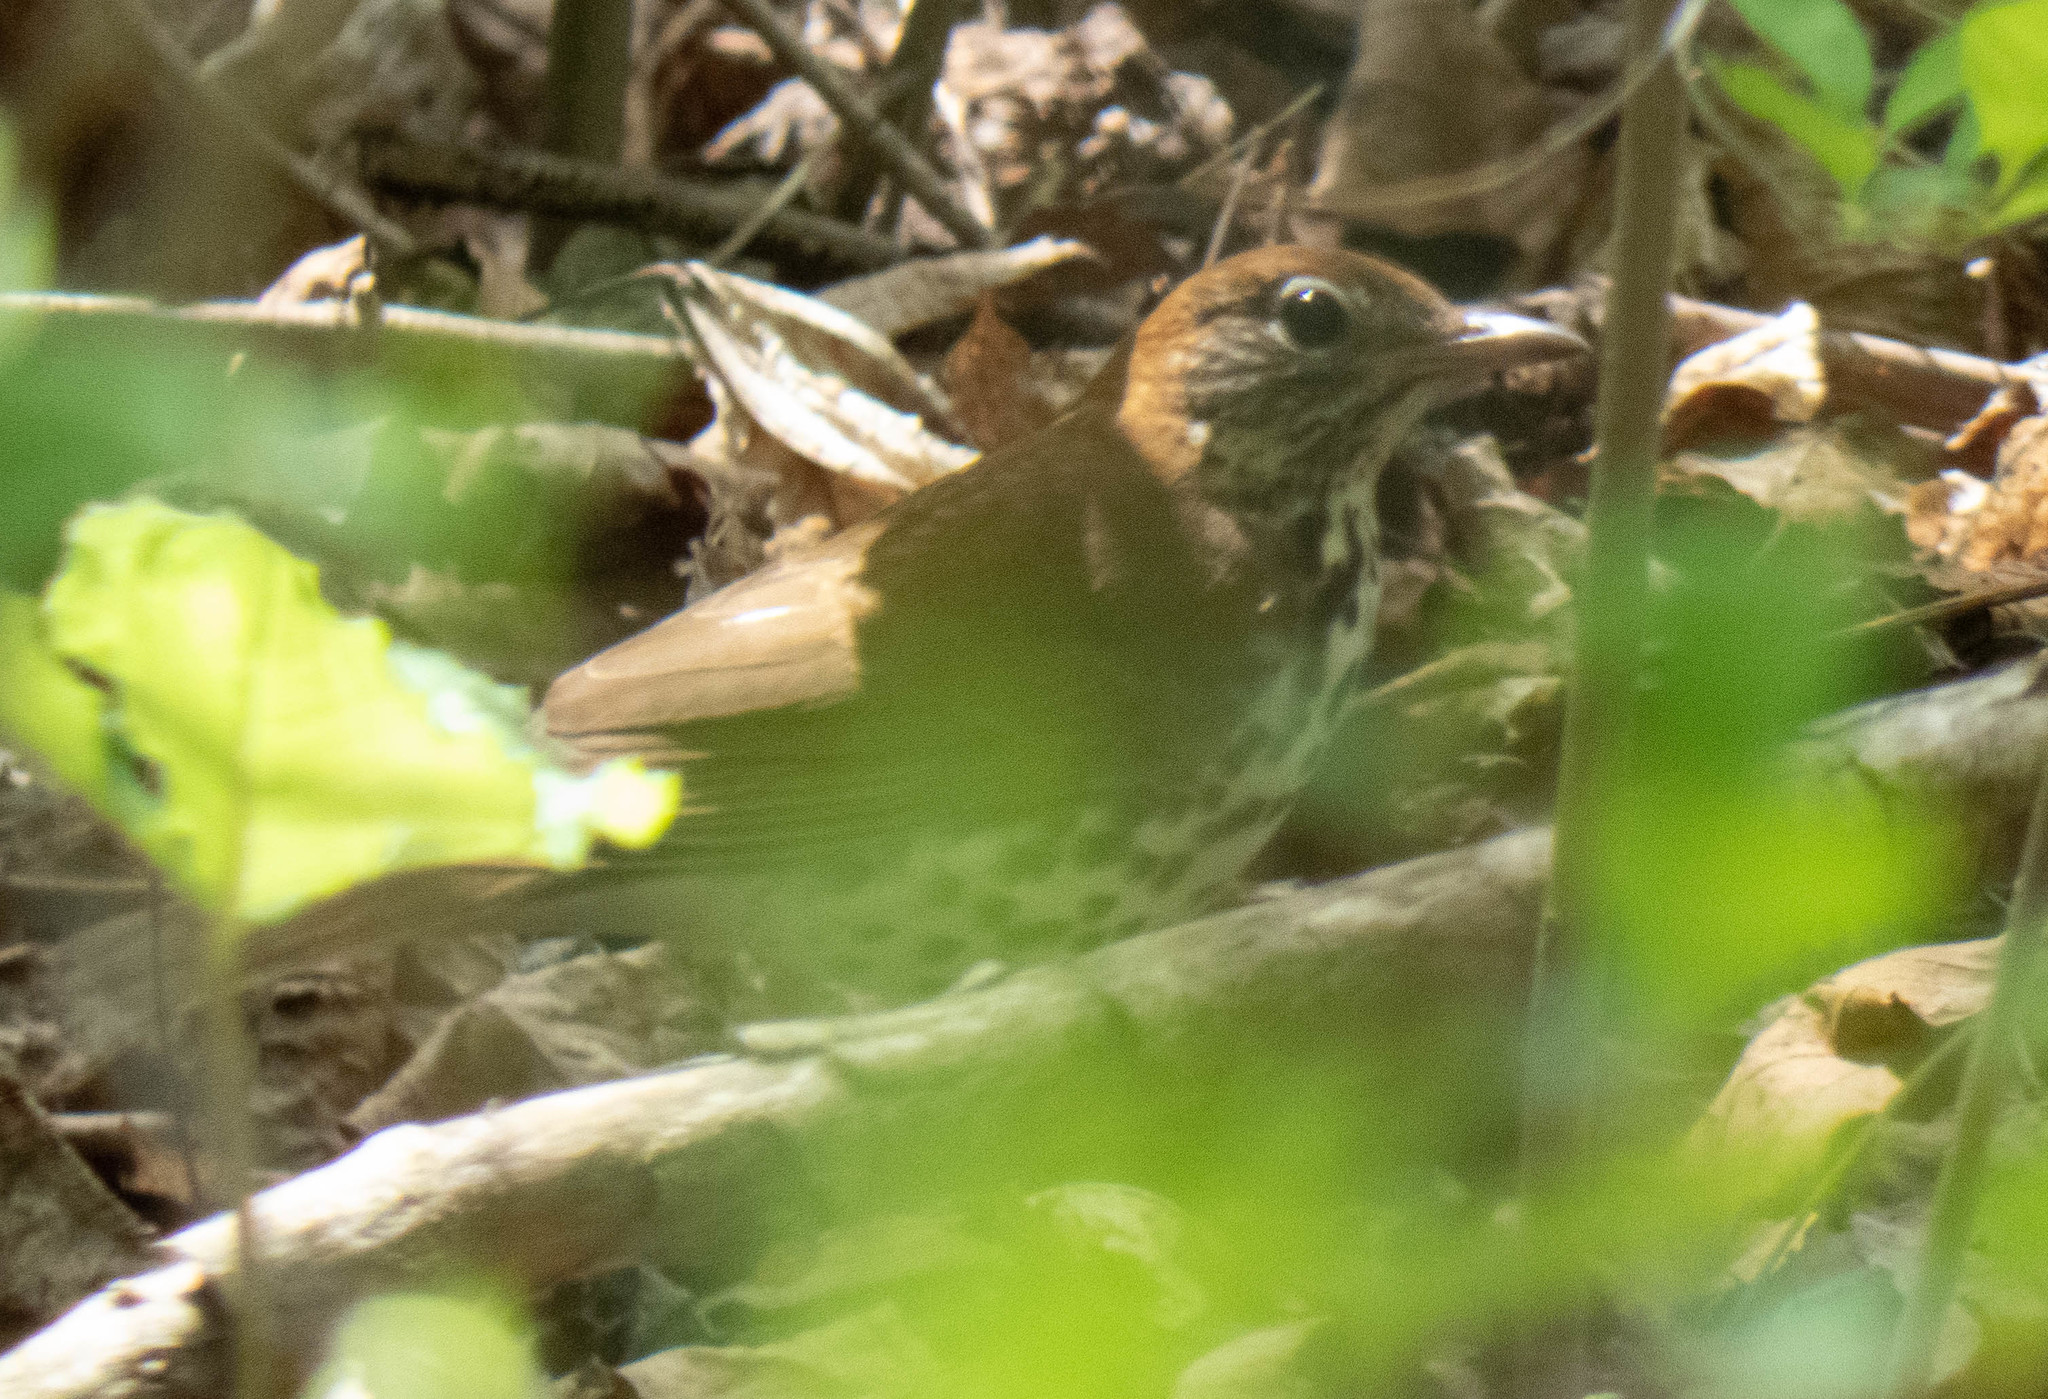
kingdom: Animalia
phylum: Chordata
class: Aves
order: Passeriformes
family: Turdidae
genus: Hylocichla
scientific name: Hylocichla mustelina
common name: Wood thrush
